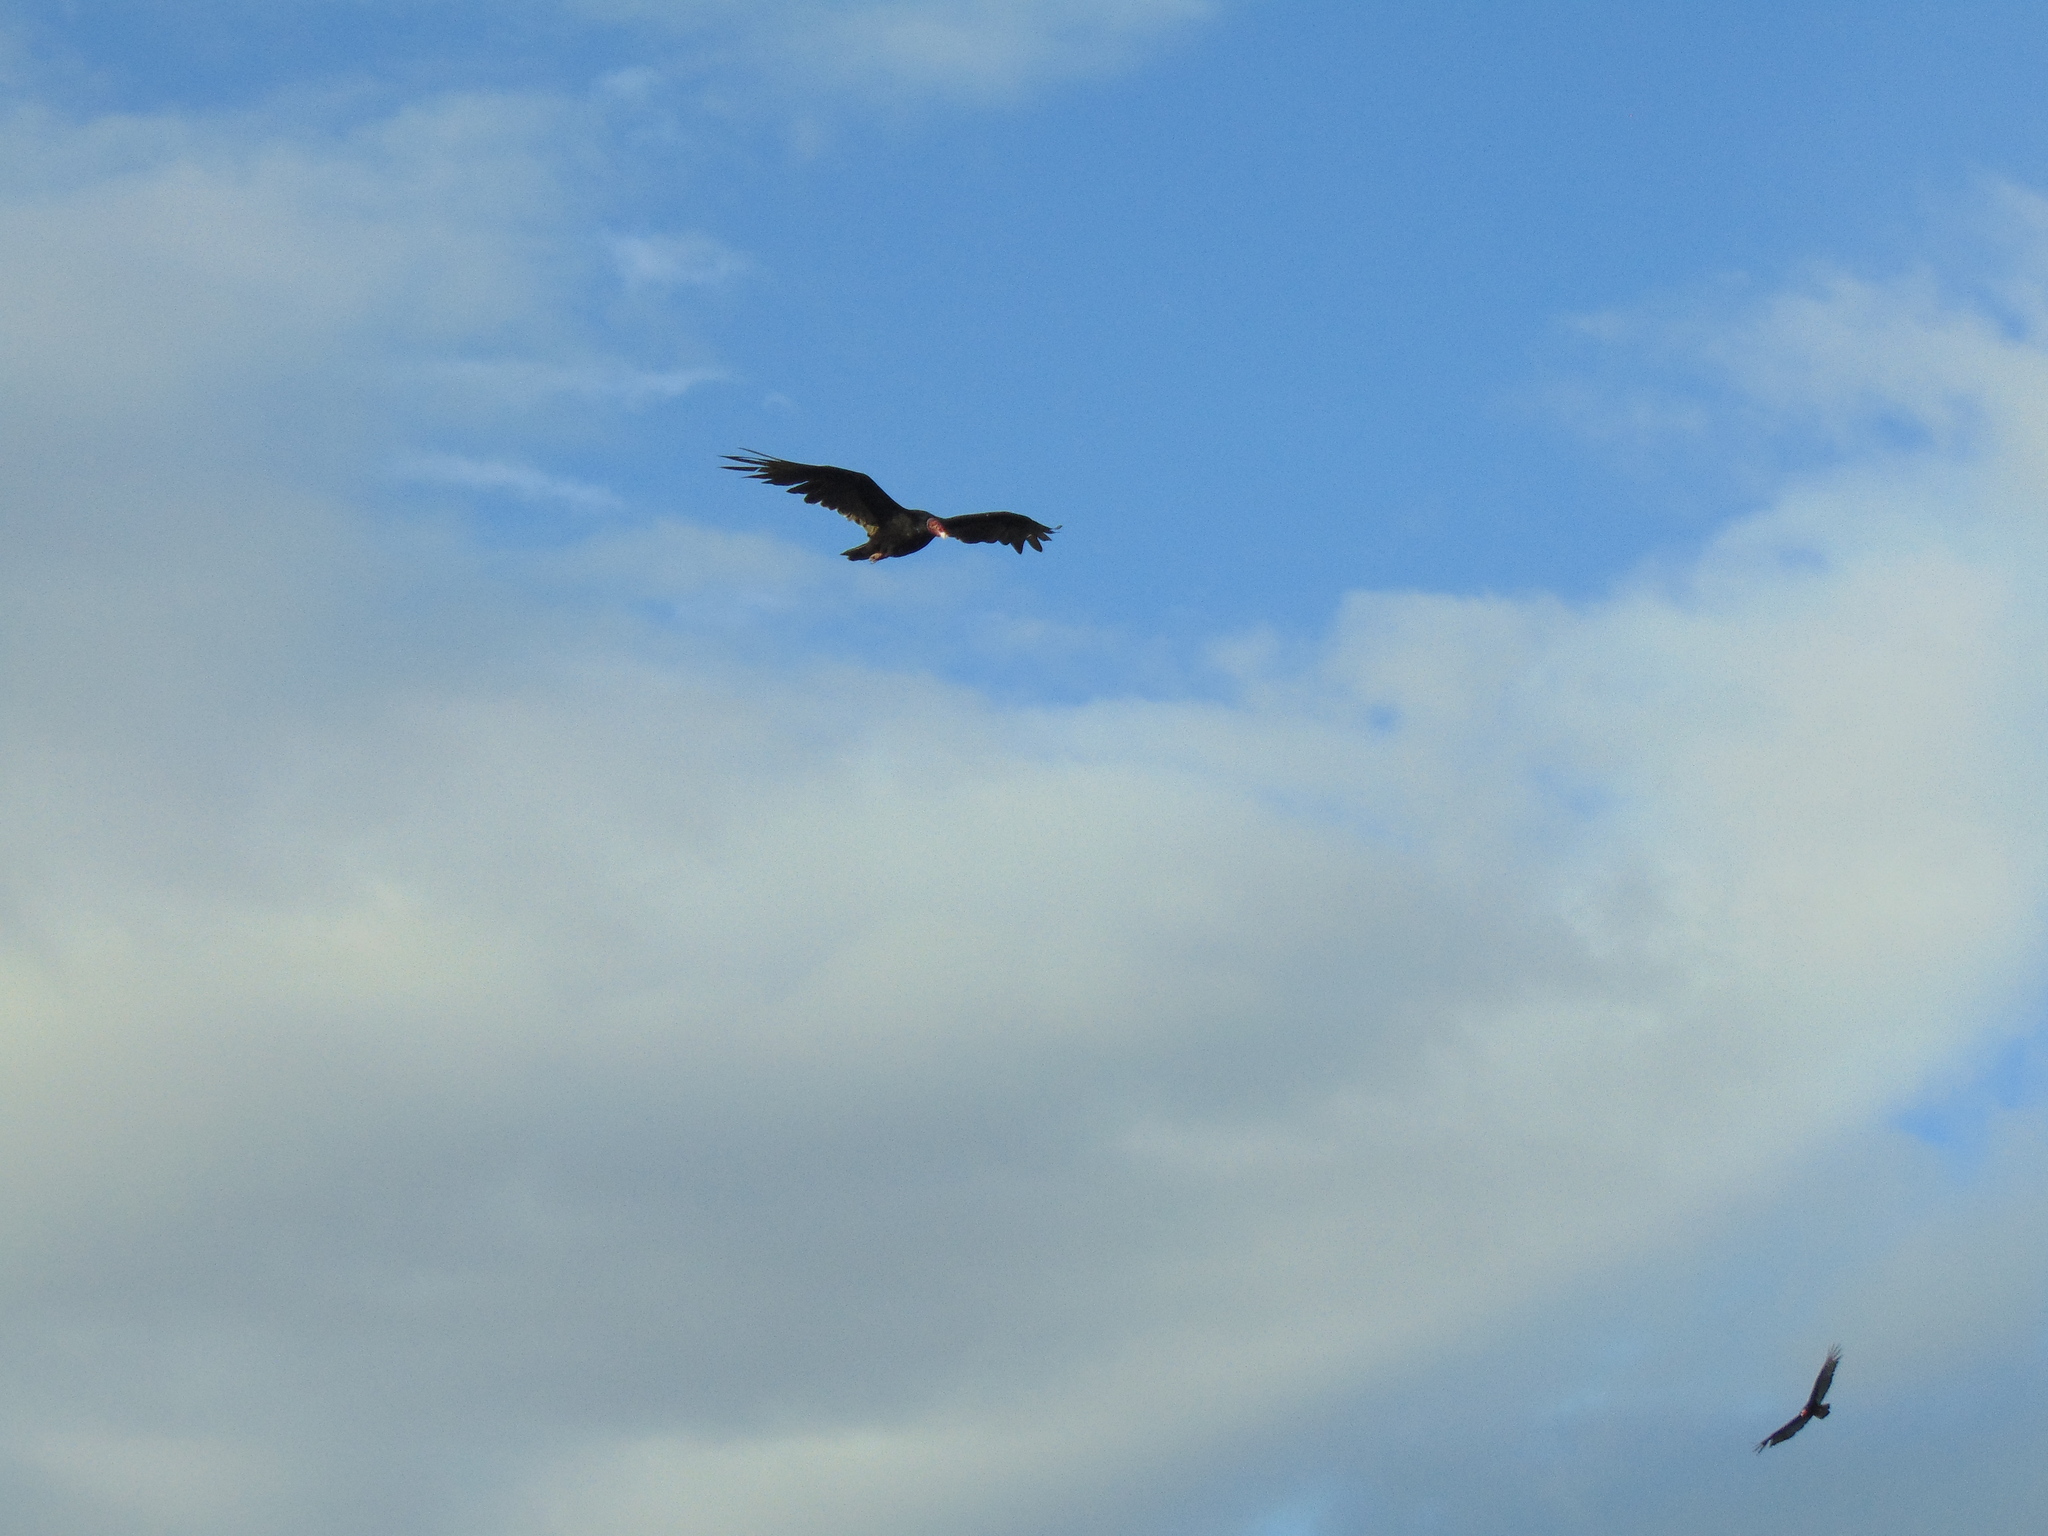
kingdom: Animalia
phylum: Chordata
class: Aves
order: Accipitriformes
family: Cathartidae
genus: Cathartes
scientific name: Cathartes aura
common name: Turkey vulture
